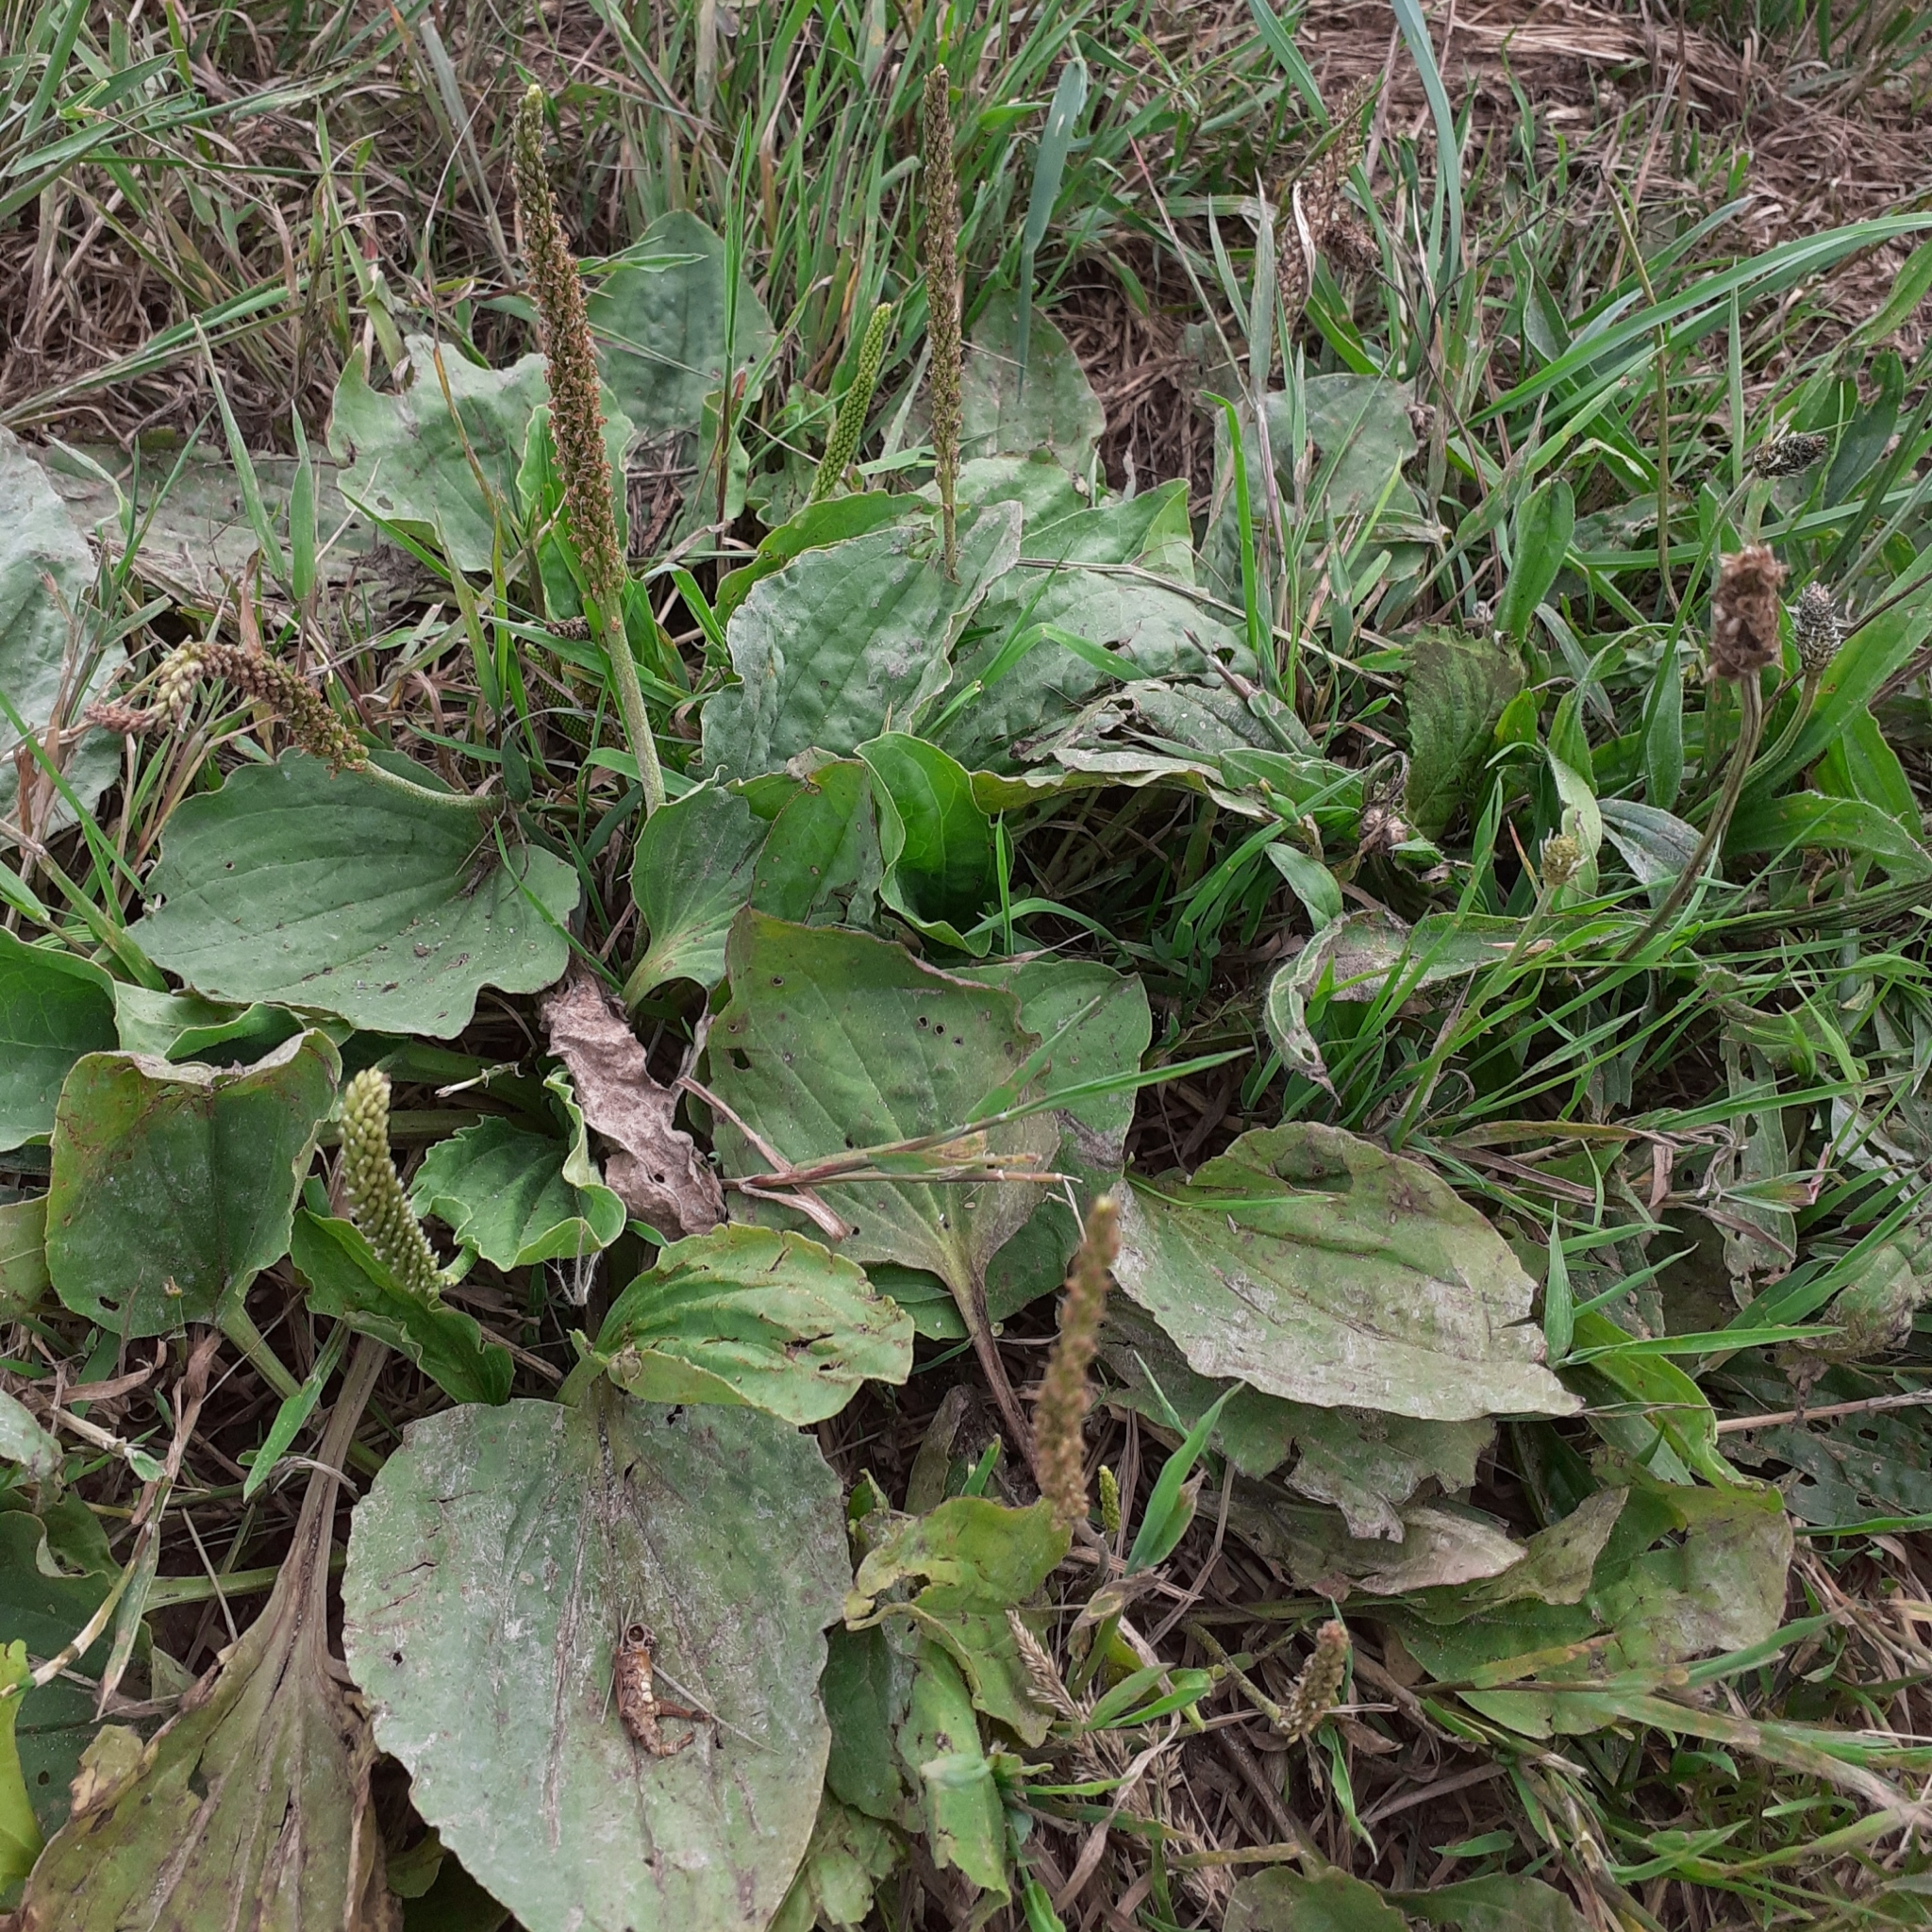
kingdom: Plantae
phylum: Tracheophyta
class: Magnoliopsida
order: Lamiales
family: Plantaginaceae
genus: Plantago
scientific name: Plantago major
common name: Common plantain
